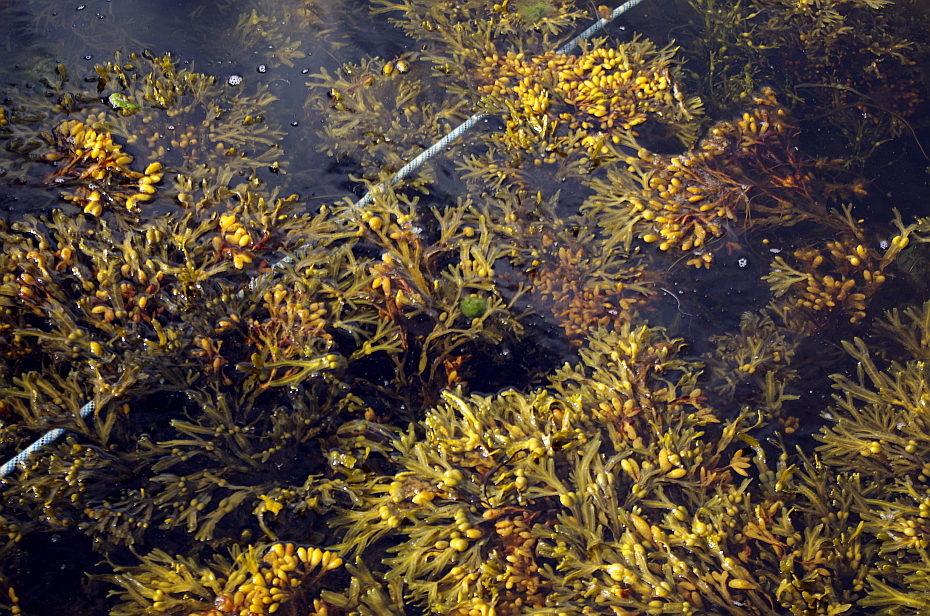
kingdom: Chromista
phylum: Ochrophyta
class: Phaeophyceae
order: Fucales
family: Fucaceae
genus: Fucus
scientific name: Fucus vesiculosus
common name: Bladder wrack
